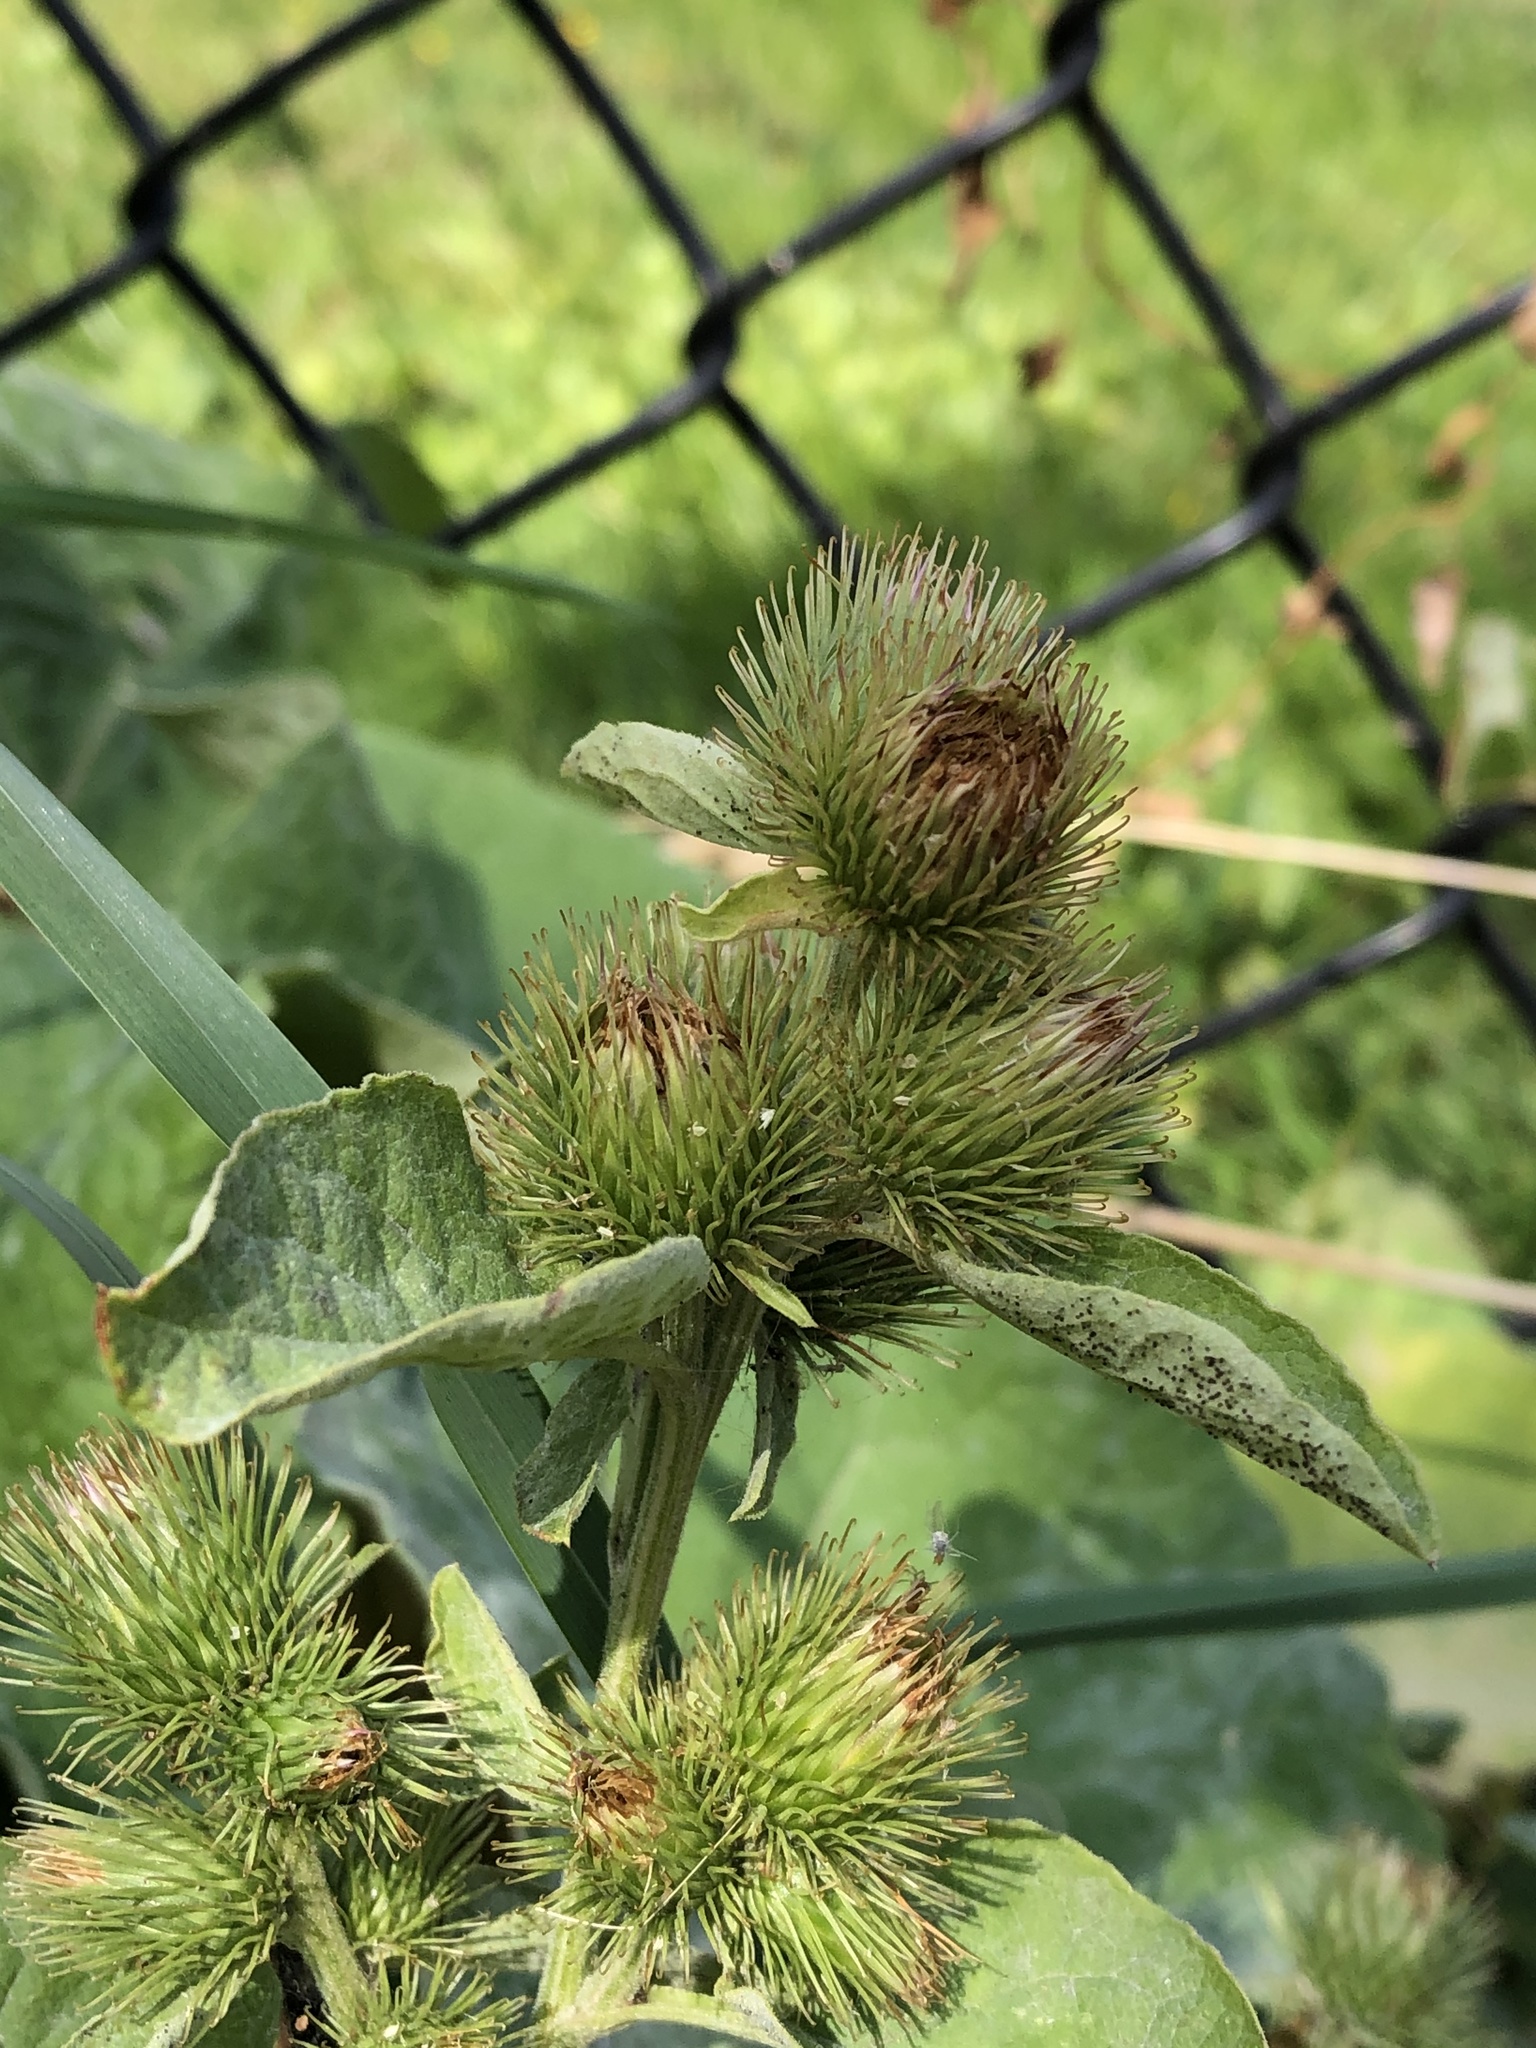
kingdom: Plantae
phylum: Tracheophyta
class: Magnoliopsida
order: Asterales
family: Asteraceae
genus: Arctium
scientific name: Arctium minus
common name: Lesser burdock
